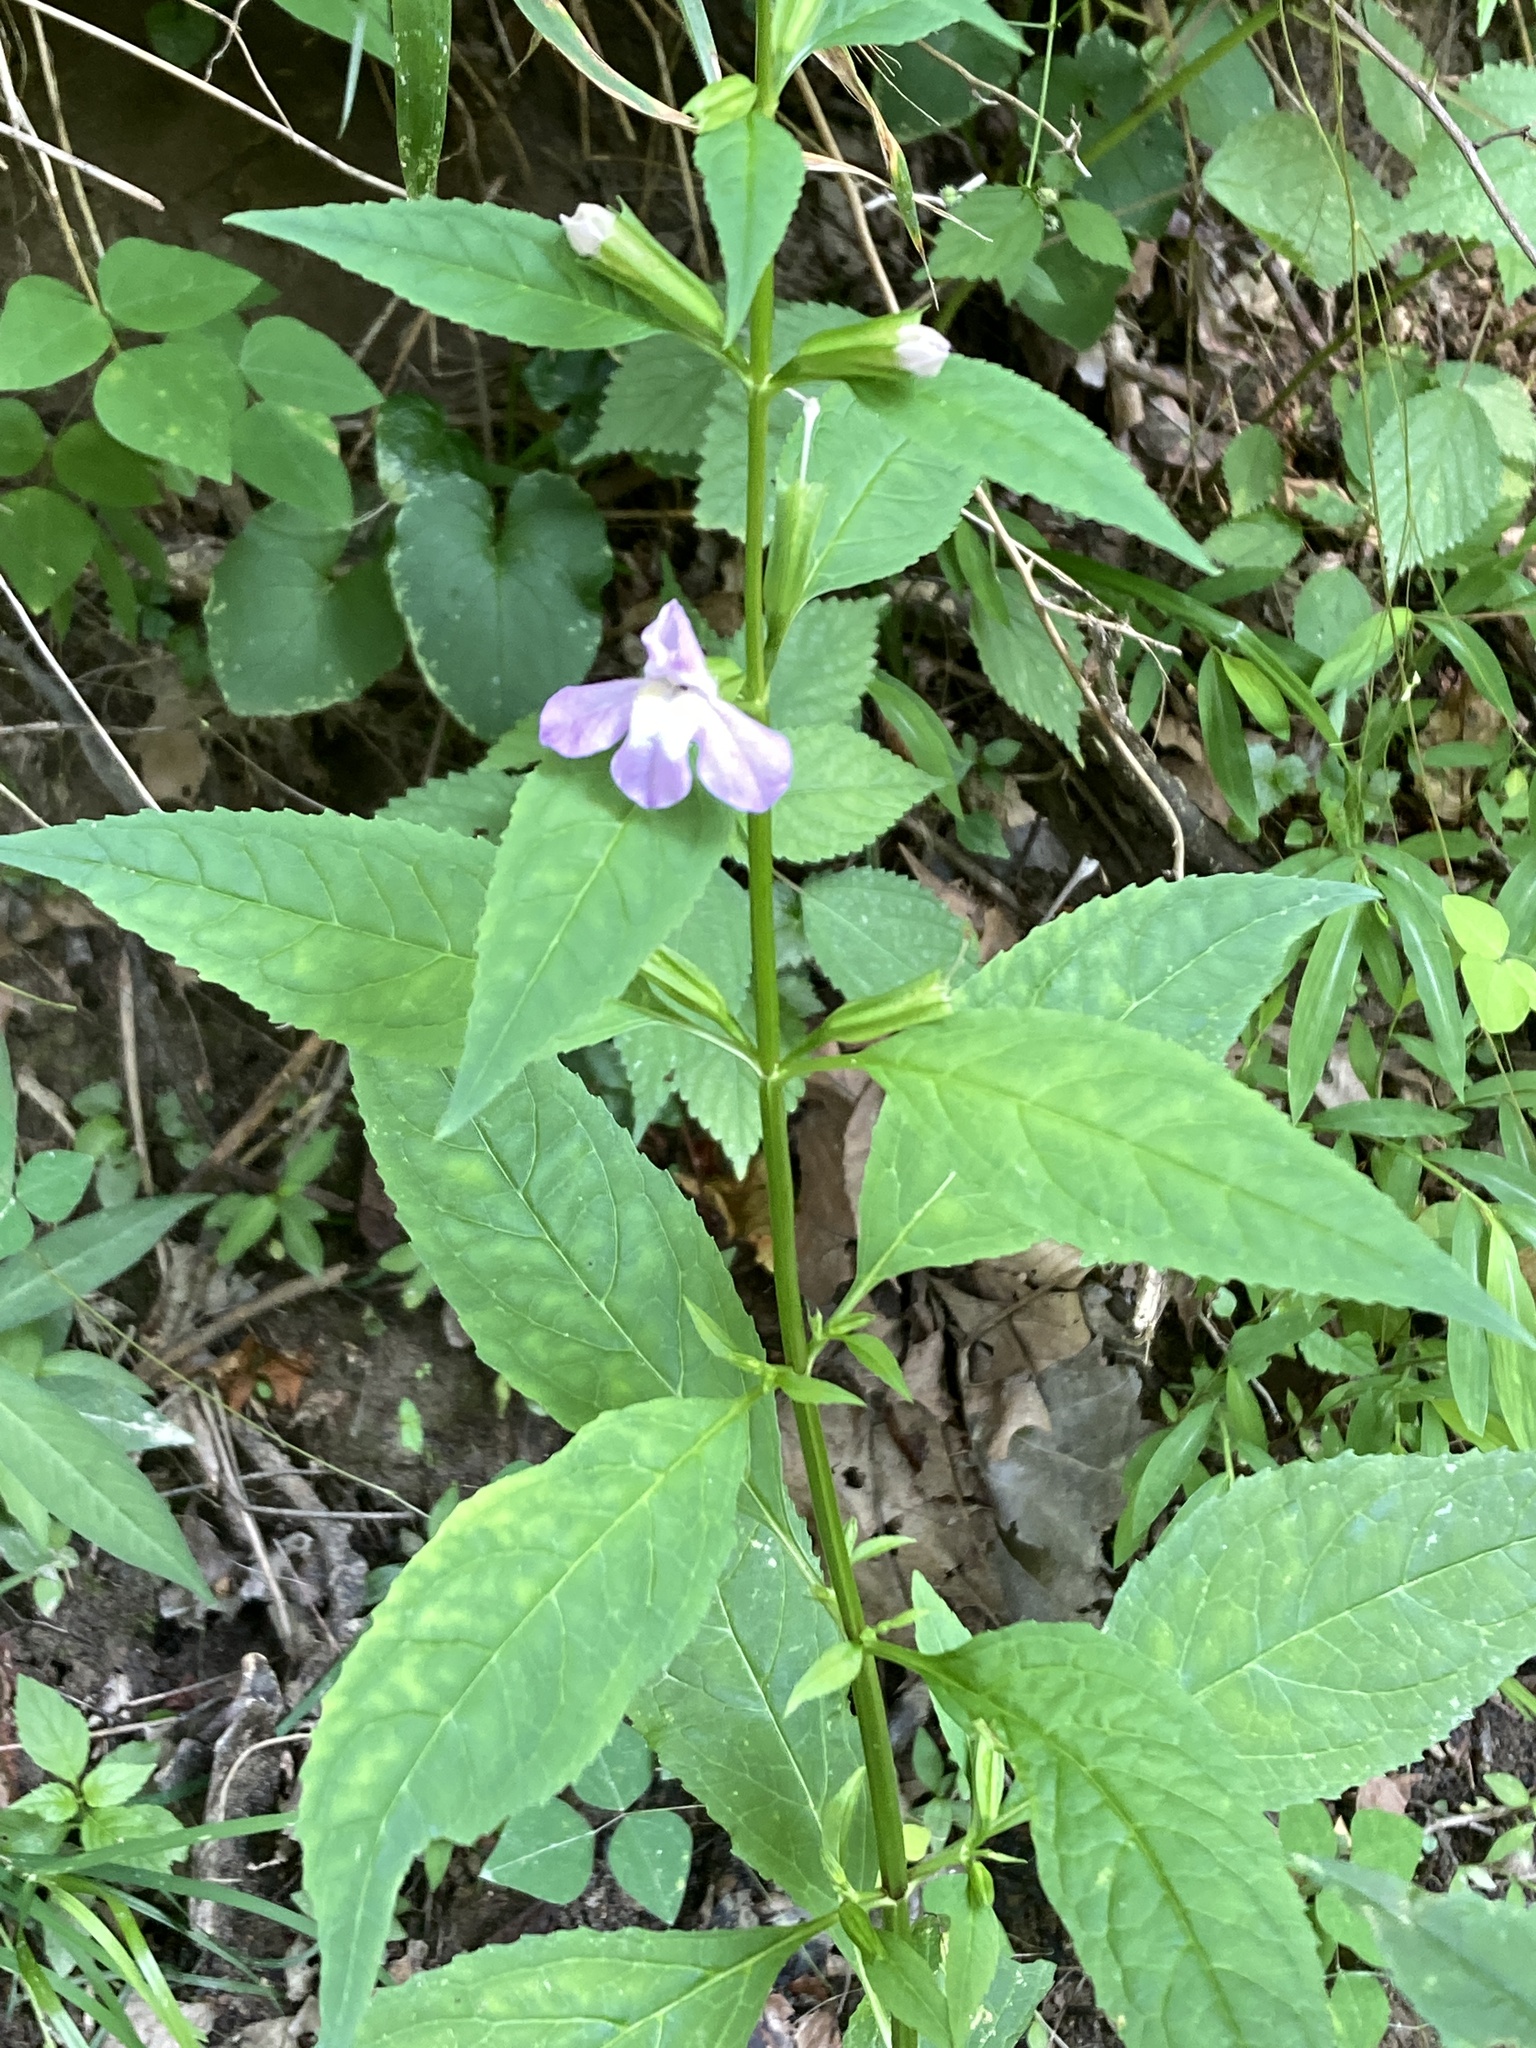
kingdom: Plantae
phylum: Tracheophyta
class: Magnoliopsida
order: Lamiales
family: Phrymaceae
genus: Mimulus
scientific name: Mimulus alatus
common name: Sharp-wing monkey-flower
